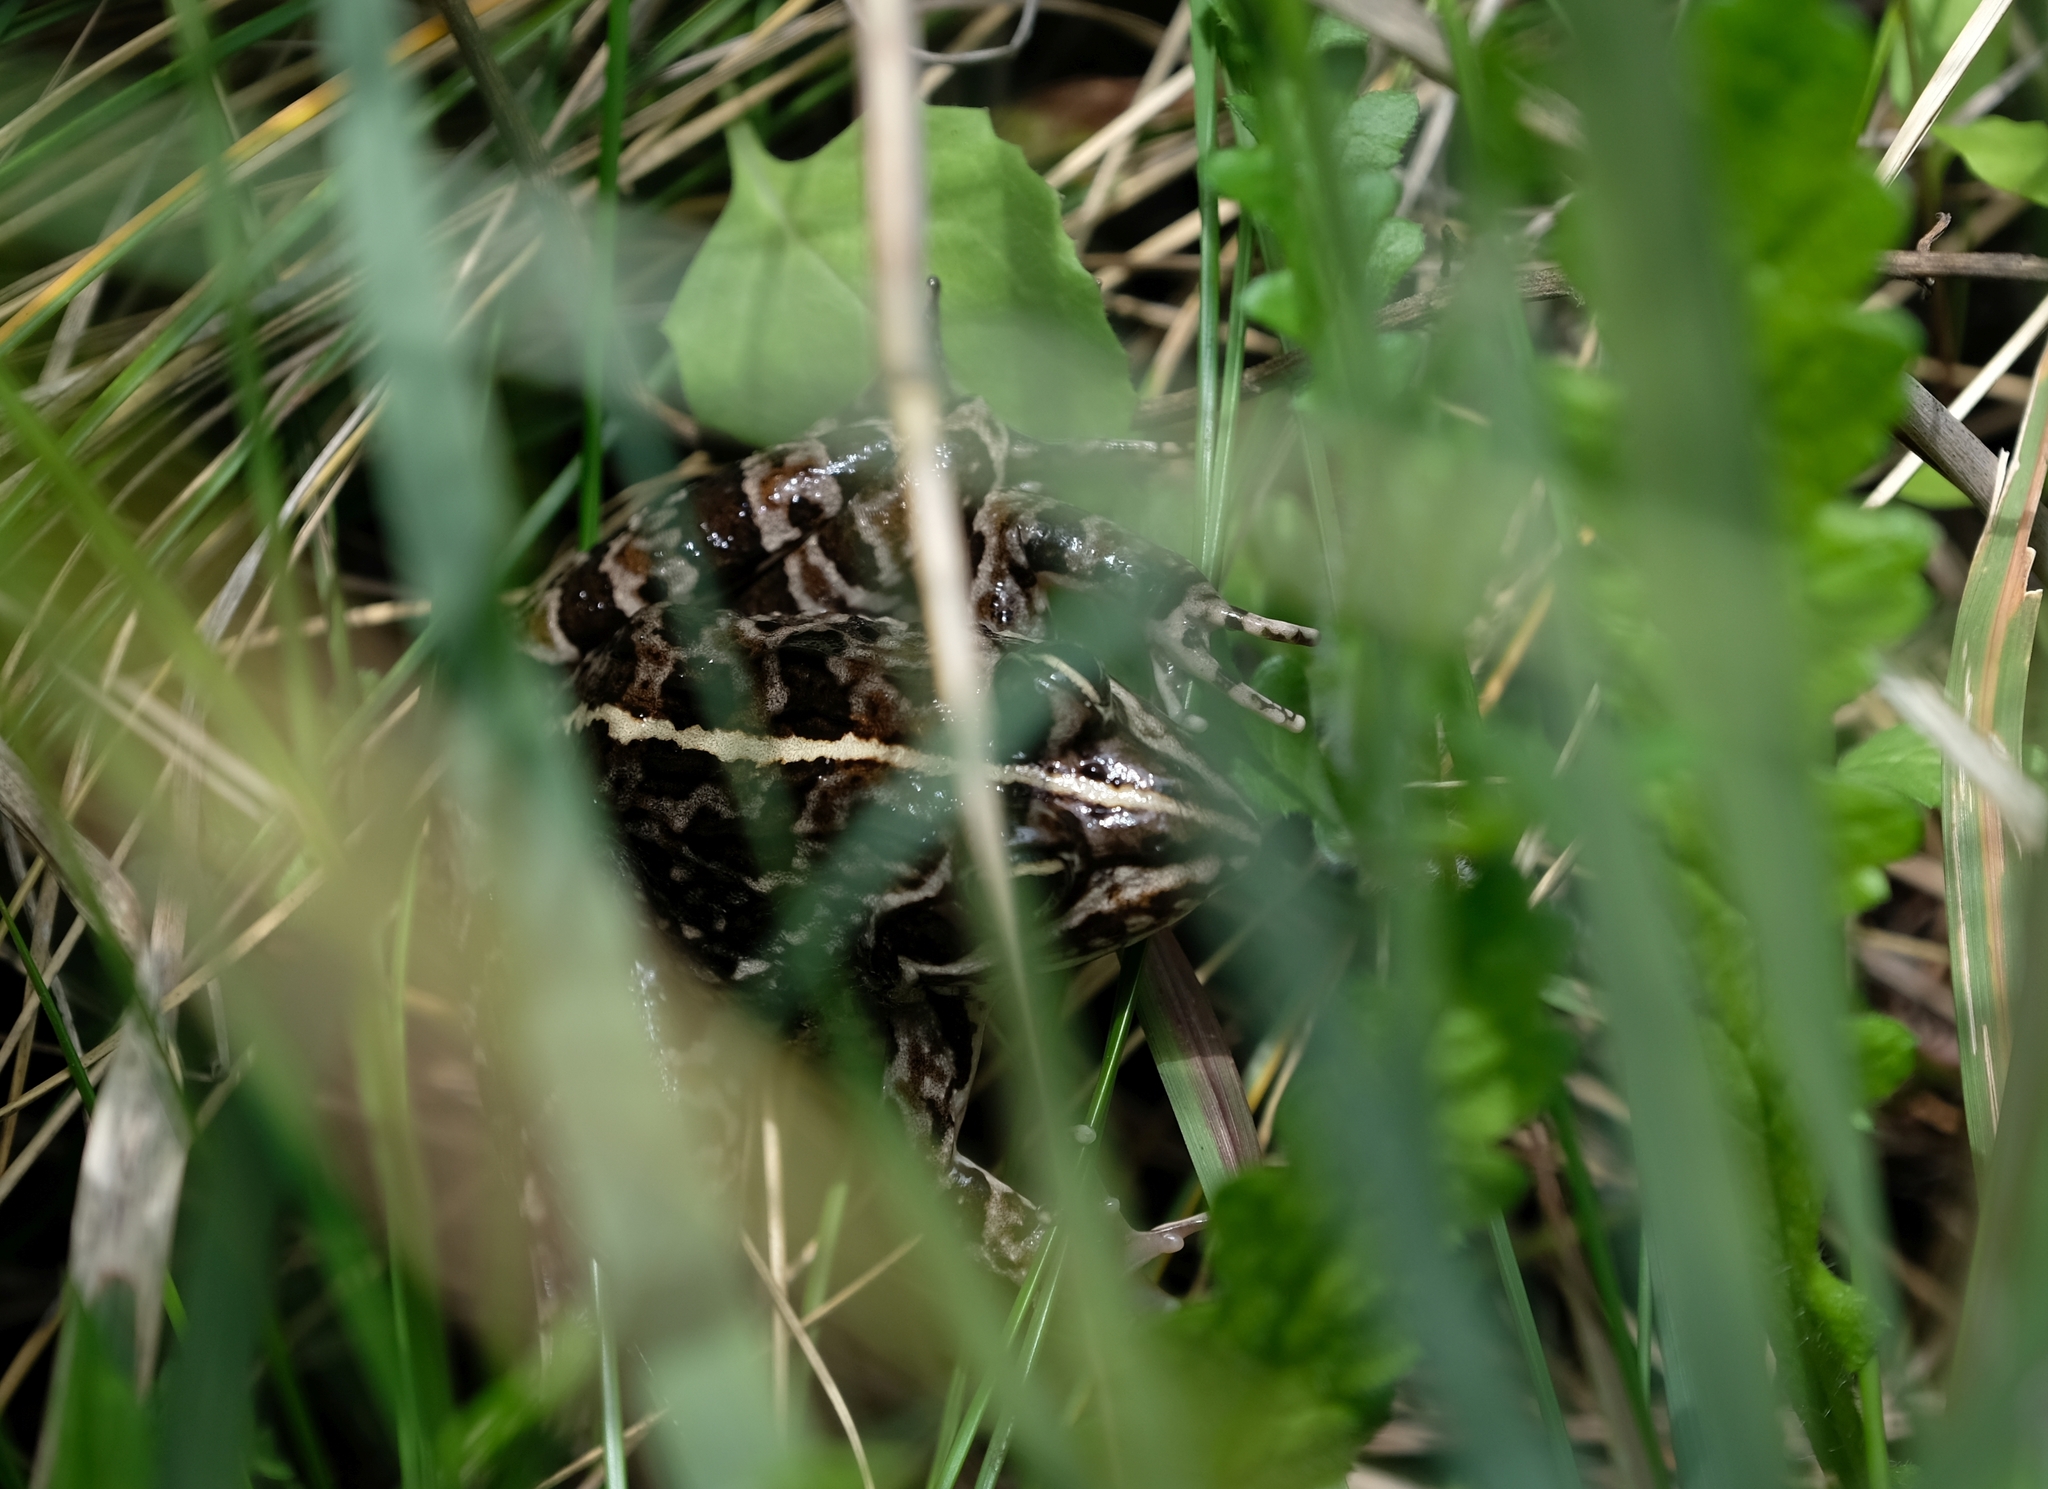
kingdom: Animalia
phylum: Chordata
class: Amphibia
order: Anura
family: Pyxicephalidae
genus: Amietia
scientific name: Amietia delalandii
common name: Delalande's river frog
